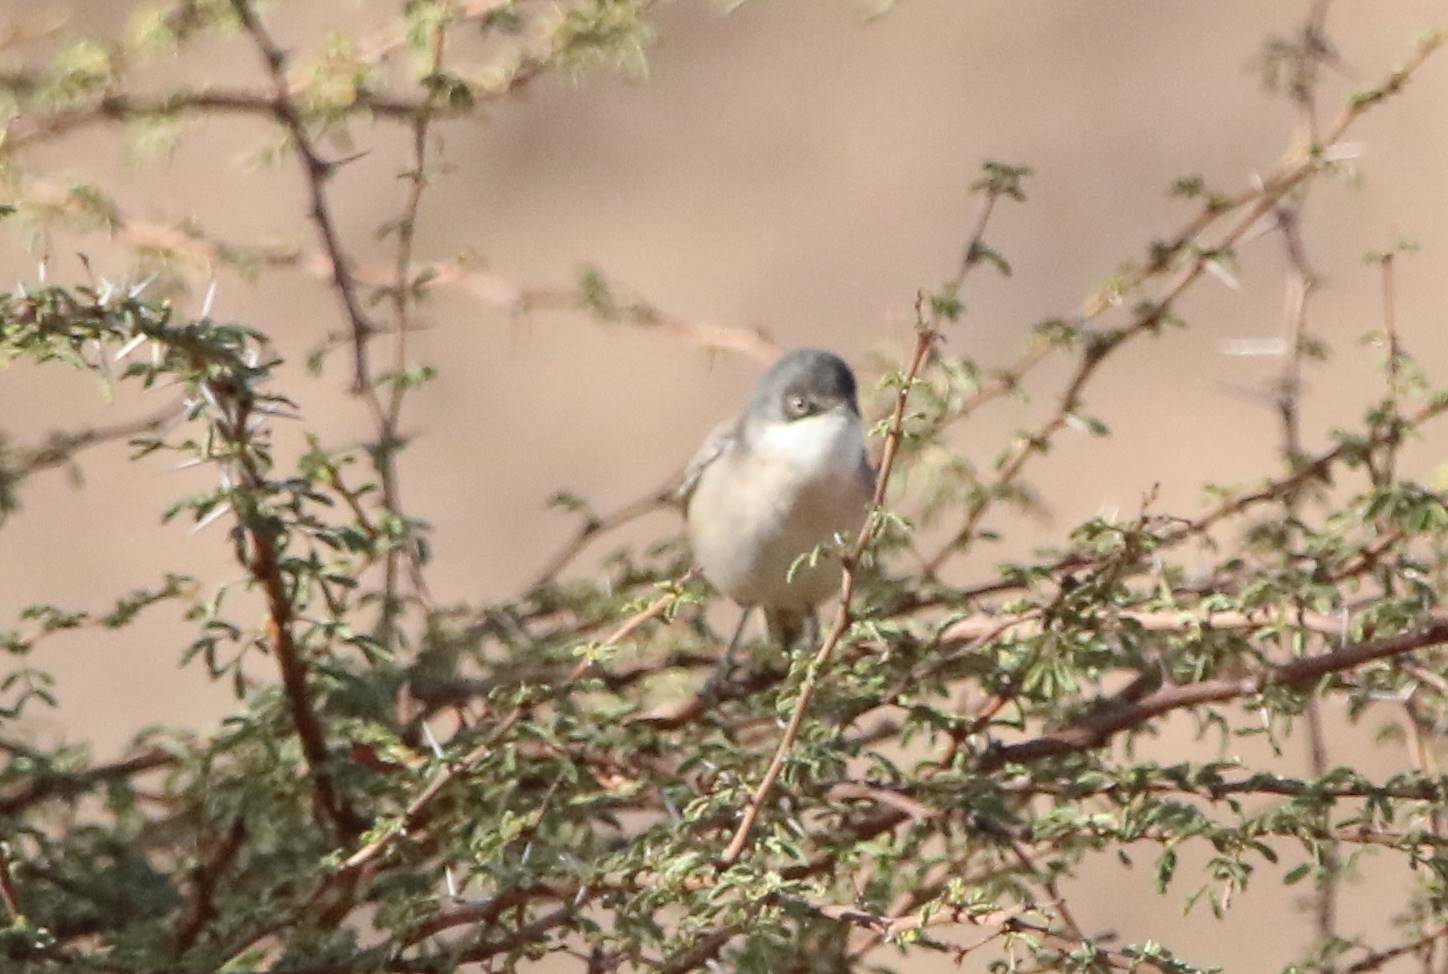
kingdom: Animalia
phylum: Chordata
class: Aves
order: Passeriformes
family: Sylviidae
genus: Sylvia
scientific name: Sylvia hortensis
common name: Orphean warbler
